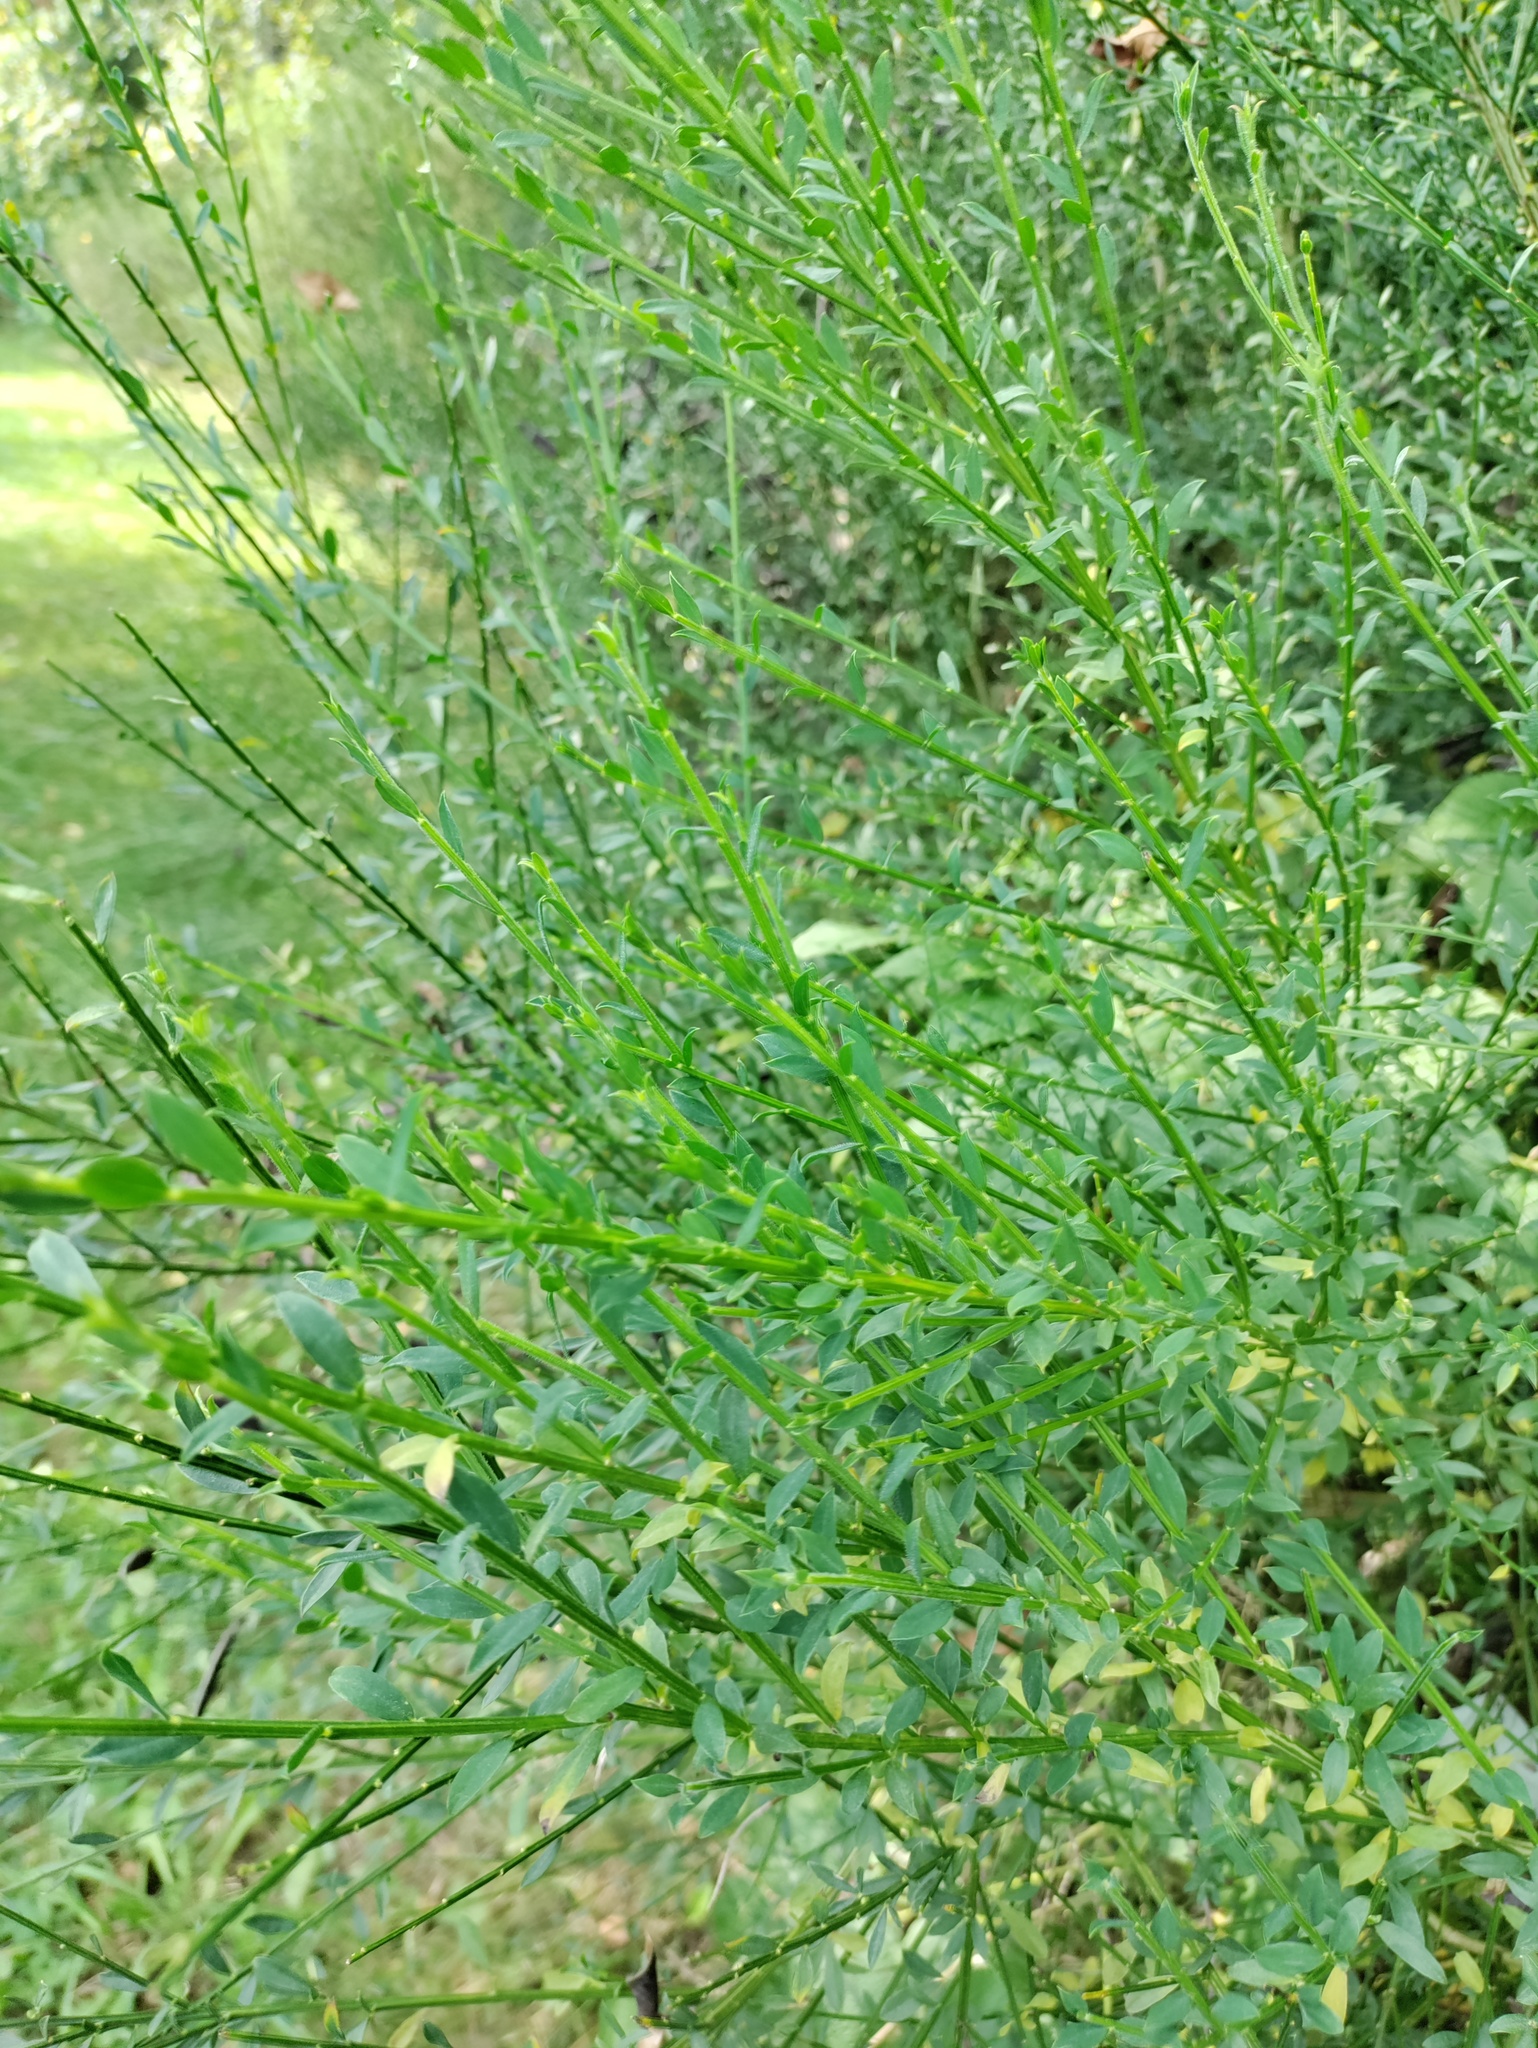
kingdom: Plantae
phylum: Tracheophyta
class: Magnoliopsida
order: Fabales
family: Fabaceae
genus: Cytisus
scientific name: Cytisus scoparius
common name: Scotch broom
